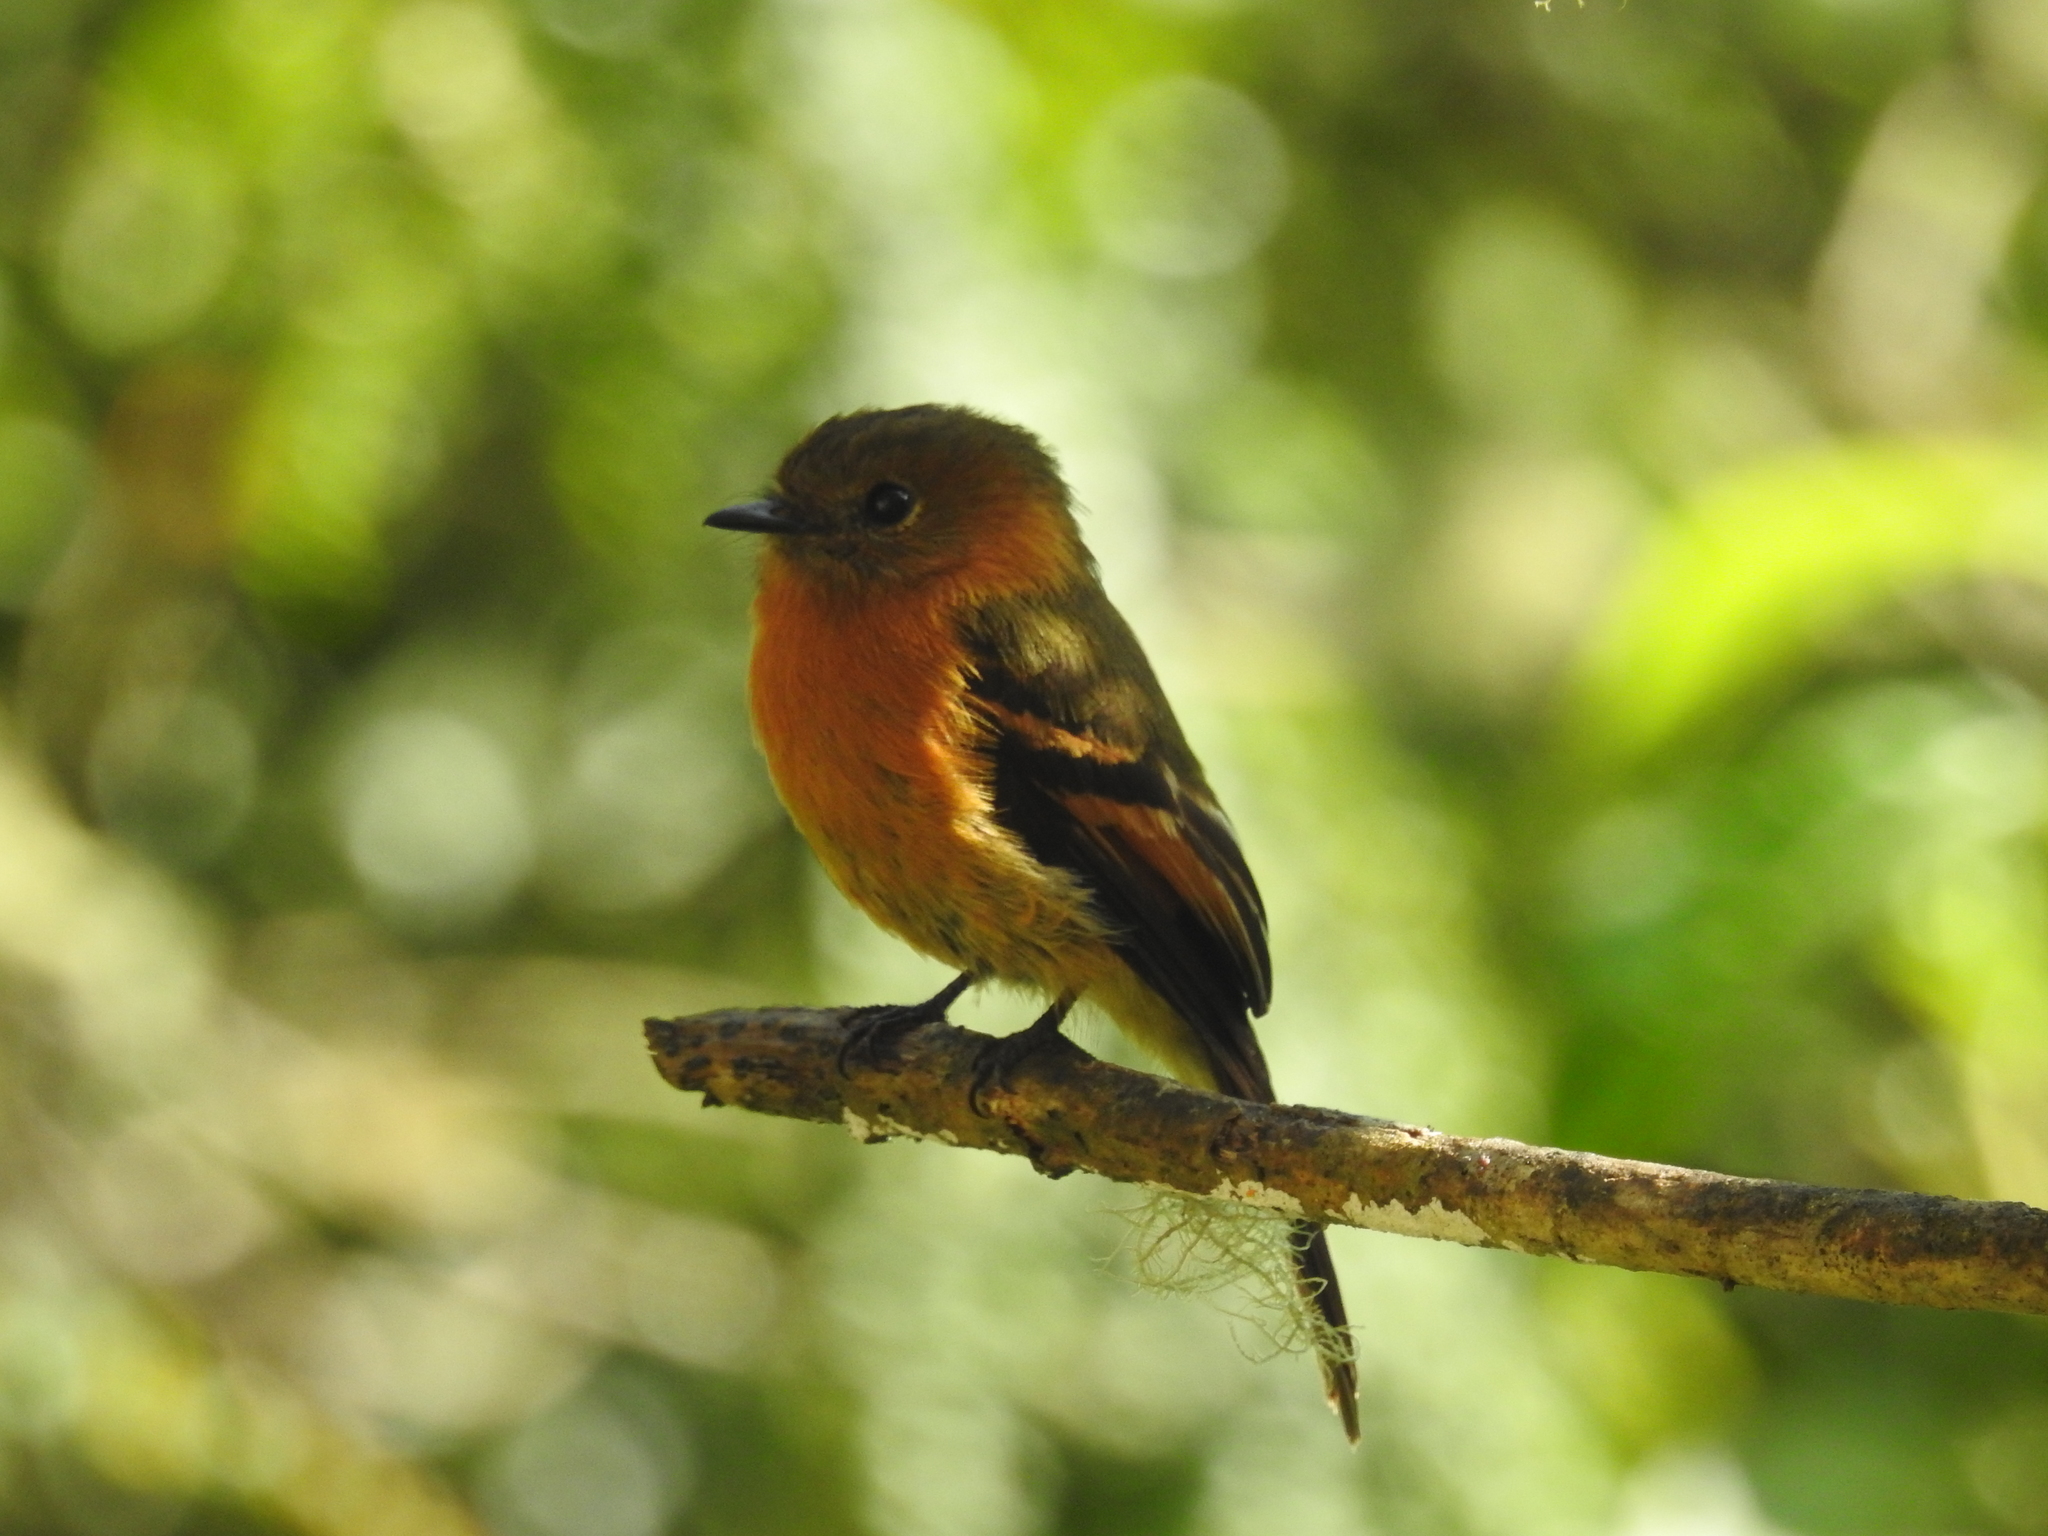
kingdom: Animalia
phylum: Chordata
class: Aves
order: Passeriformes
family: Tyrannidae
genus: Pyrrhomyias
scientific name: Pyrrhomyias cinnamomeus
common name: Cinnamon flycatcher
